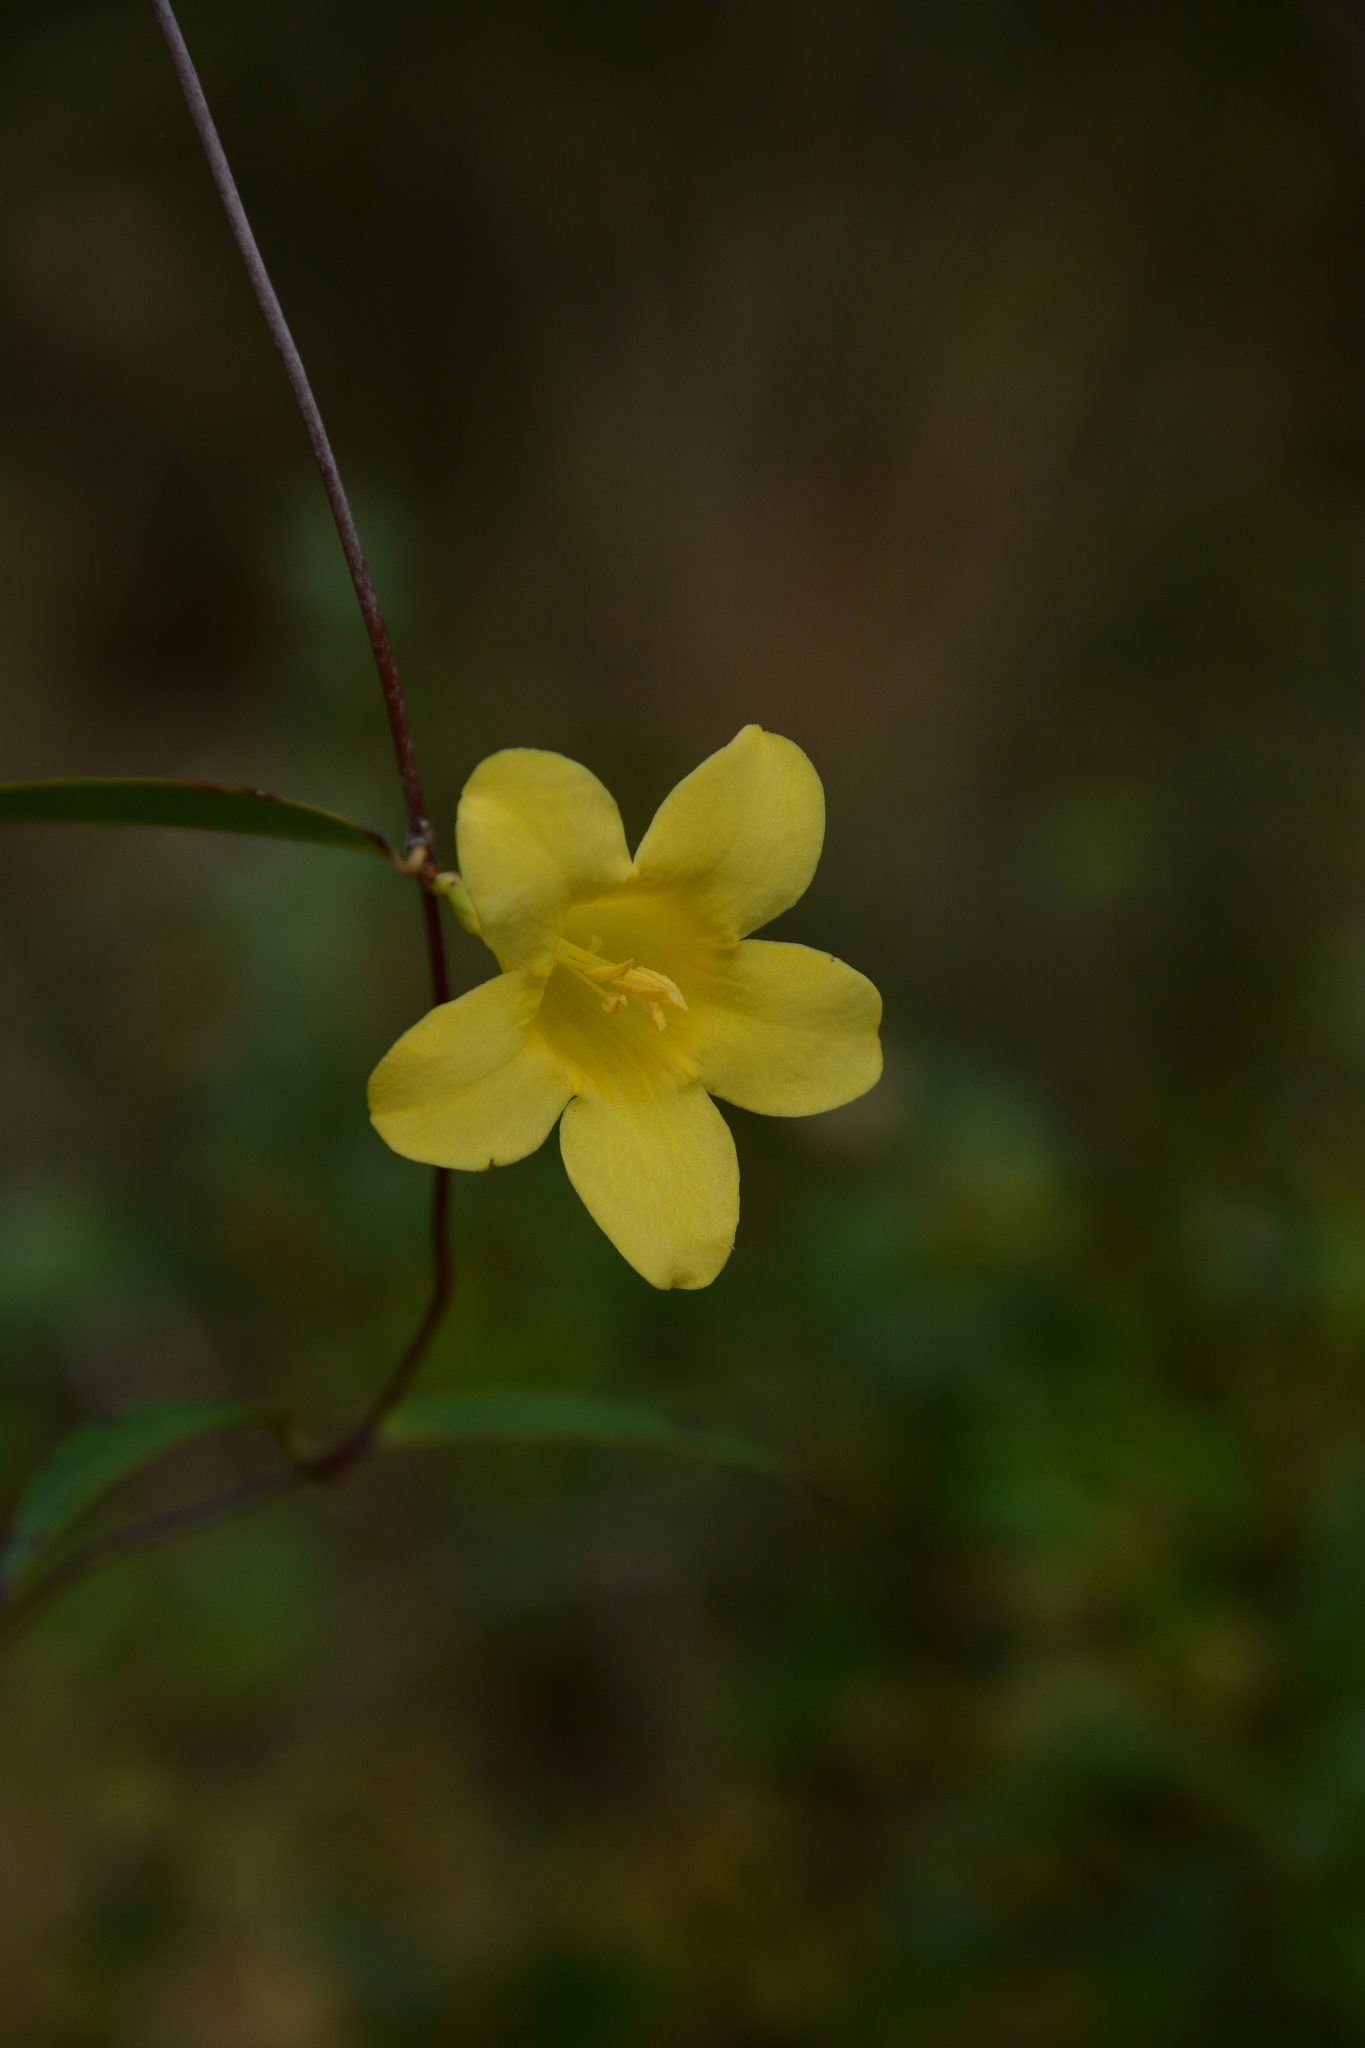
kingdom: Plantae
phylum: Tracheophyta
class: Magnoliopsida
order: Gentianales
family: Gelsemiaceae
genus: Gelsemium
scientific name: Gelsemium sempervirens
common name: Carolina-jasmine
